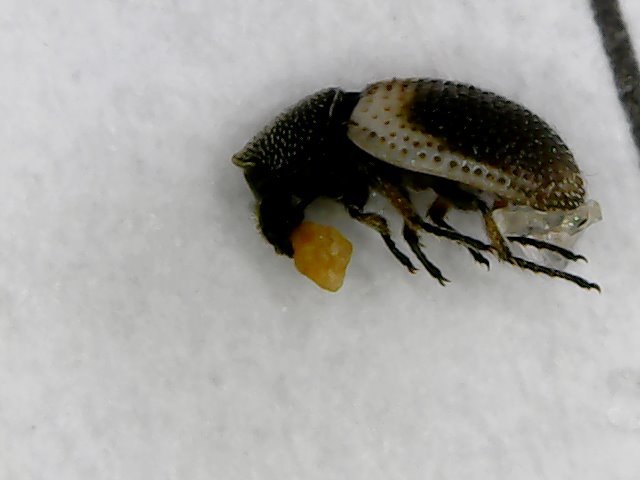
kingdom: Animalia
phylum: Arthropoda
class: Insecta
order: Coleoptera
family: Phycosecidae
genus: Phycosecis
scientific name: Phycosecis
